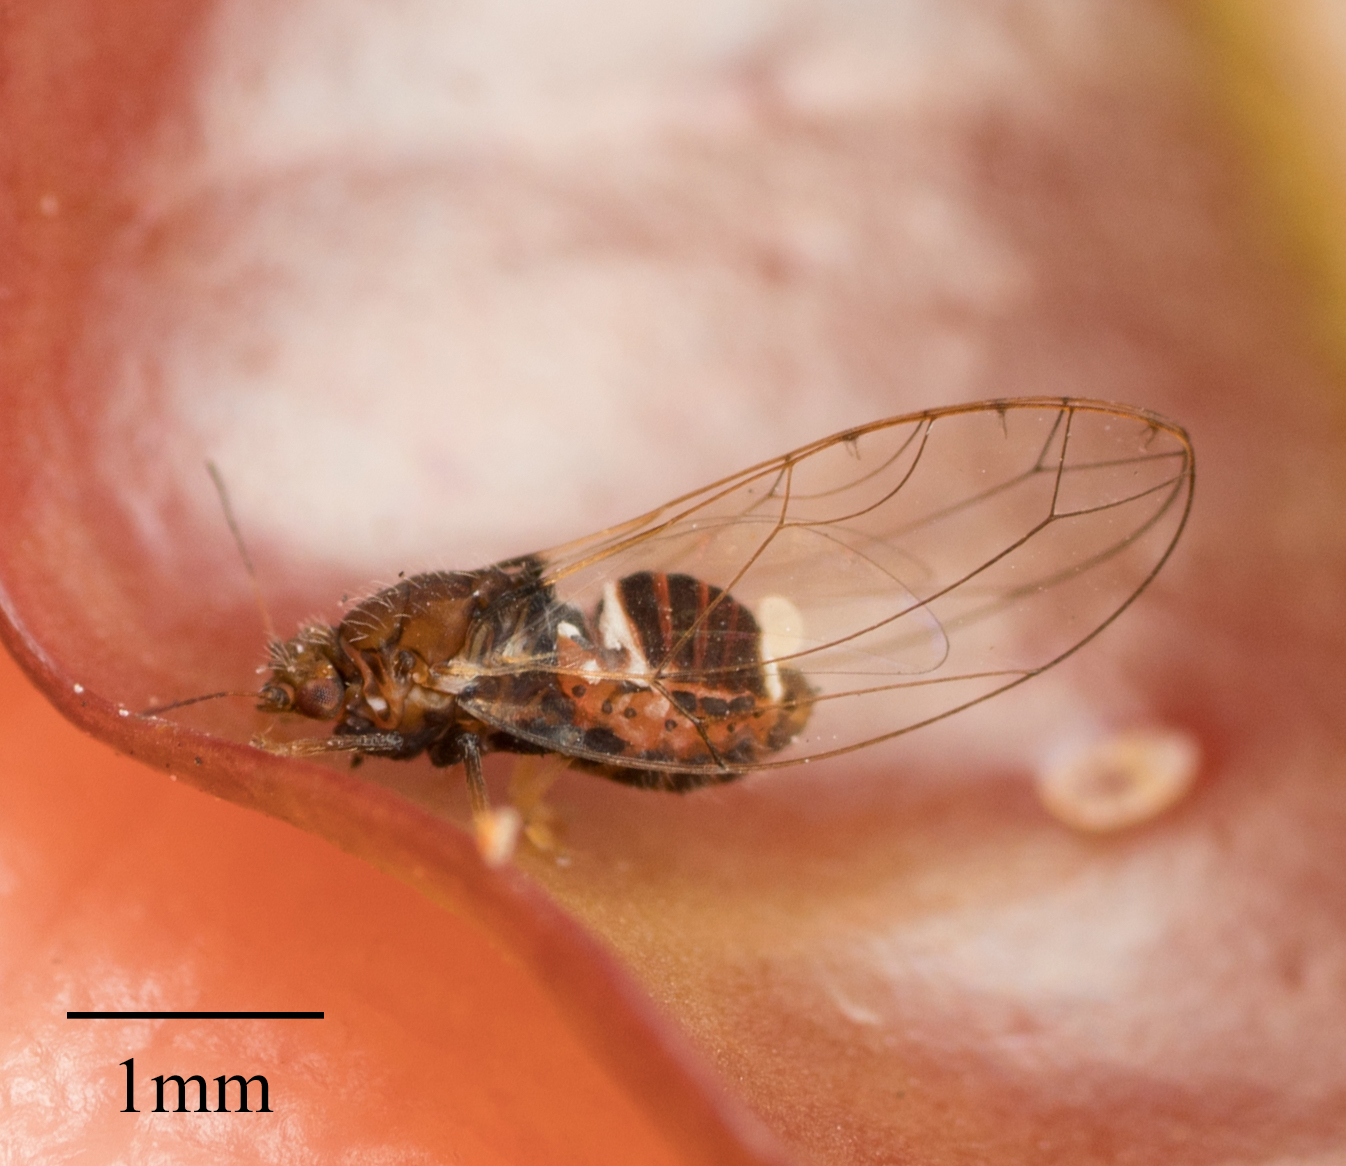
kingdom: Animalia
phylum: Arthropoda
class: Insecta
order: Hemiptera
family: Triozidae
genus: Trioza
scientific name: Trioza adventicia
